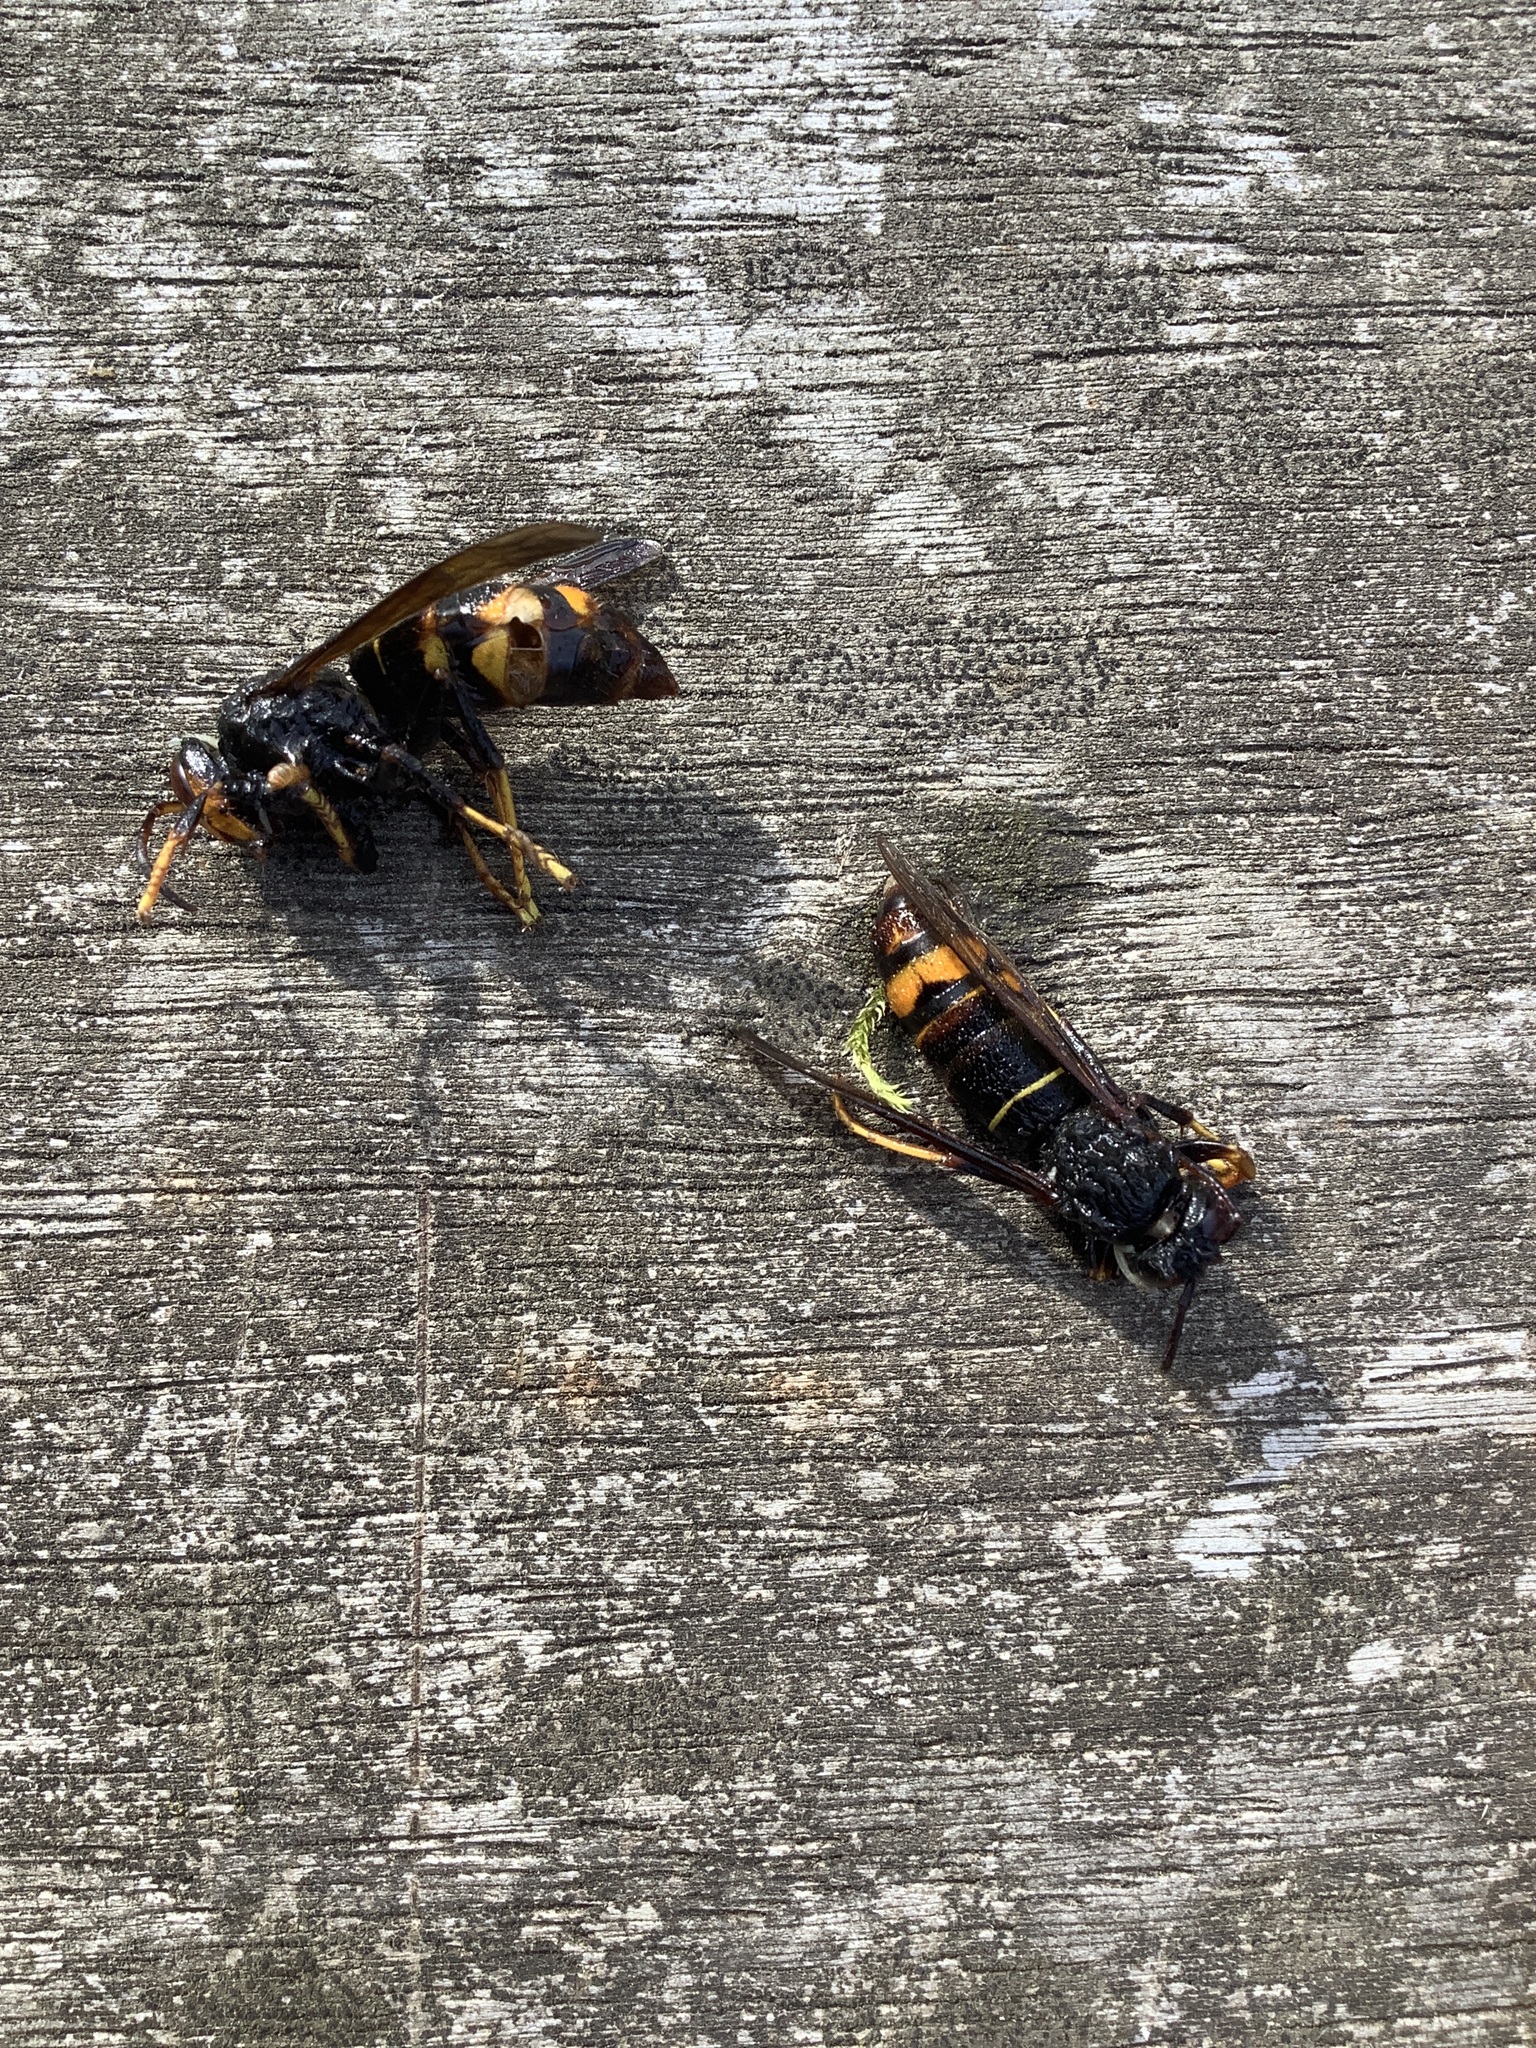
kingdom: Animalia
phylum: Arthropoda
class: Insecta
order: Hymenoptera
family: Vespidae
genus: Vespa
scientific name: Vespa velutina
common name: Asian hornet
